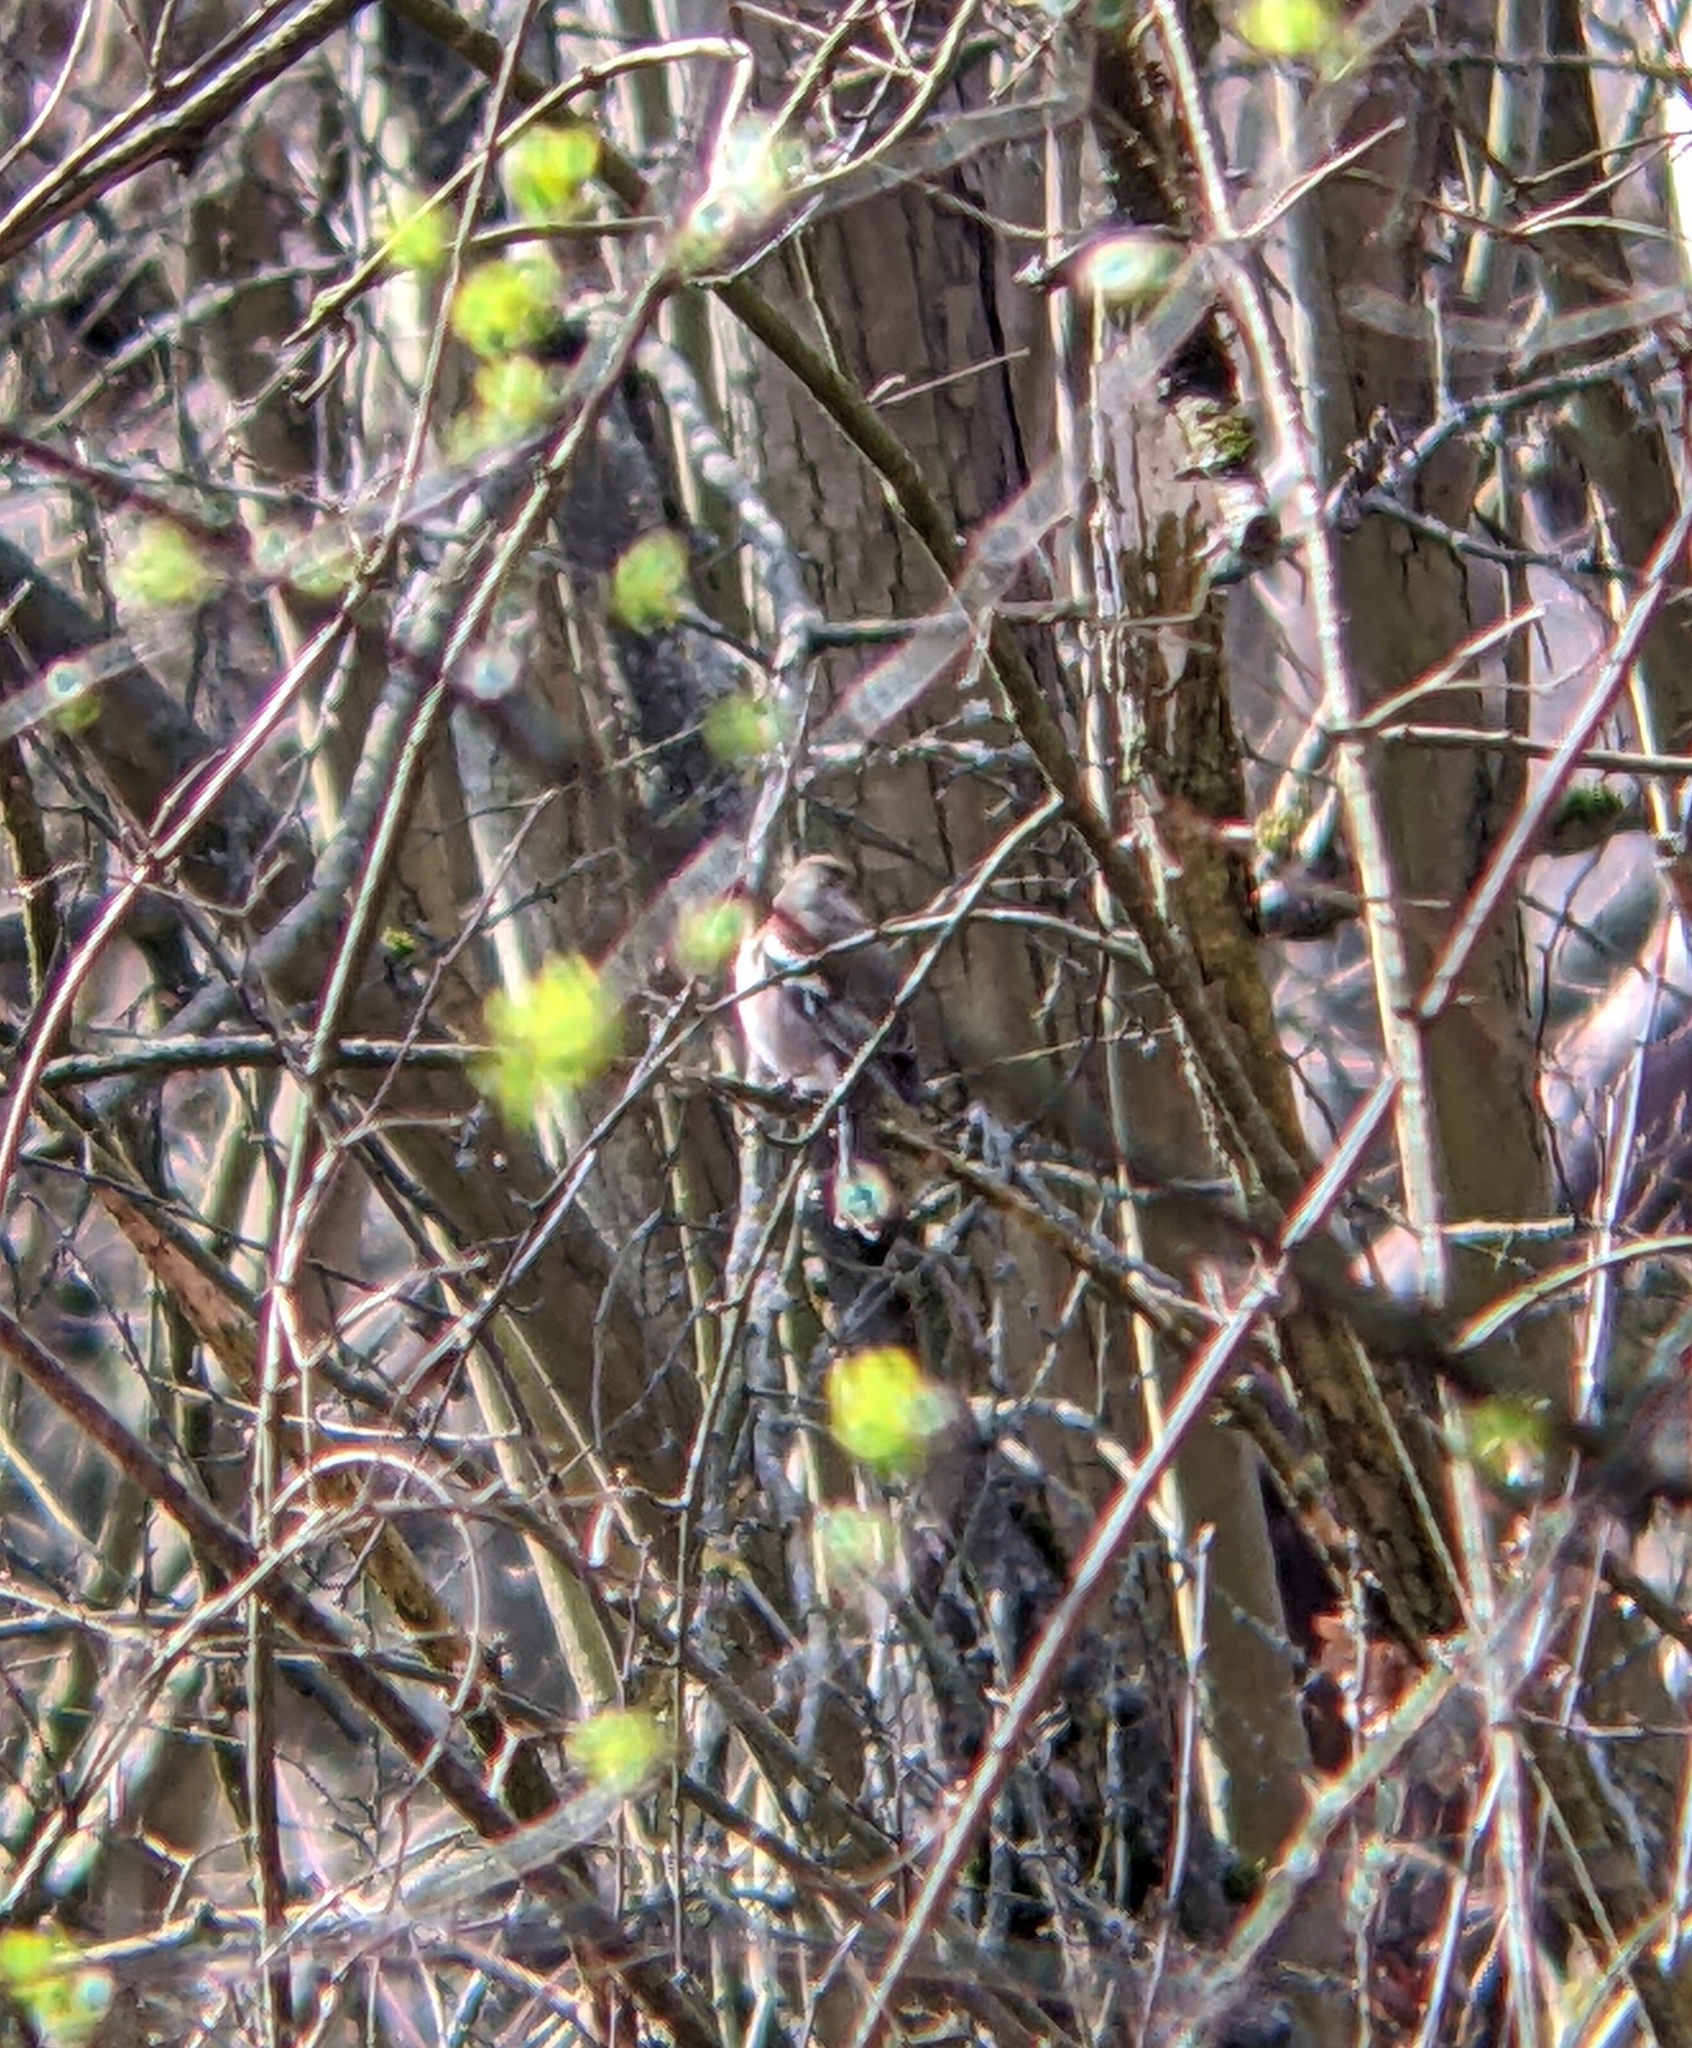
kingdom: Animalia
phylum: Chordata
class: Aves
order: Passeriformes
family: Fringillidae
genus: Fringilla
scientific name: Fringilla coelebs
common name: Common chaffinch
